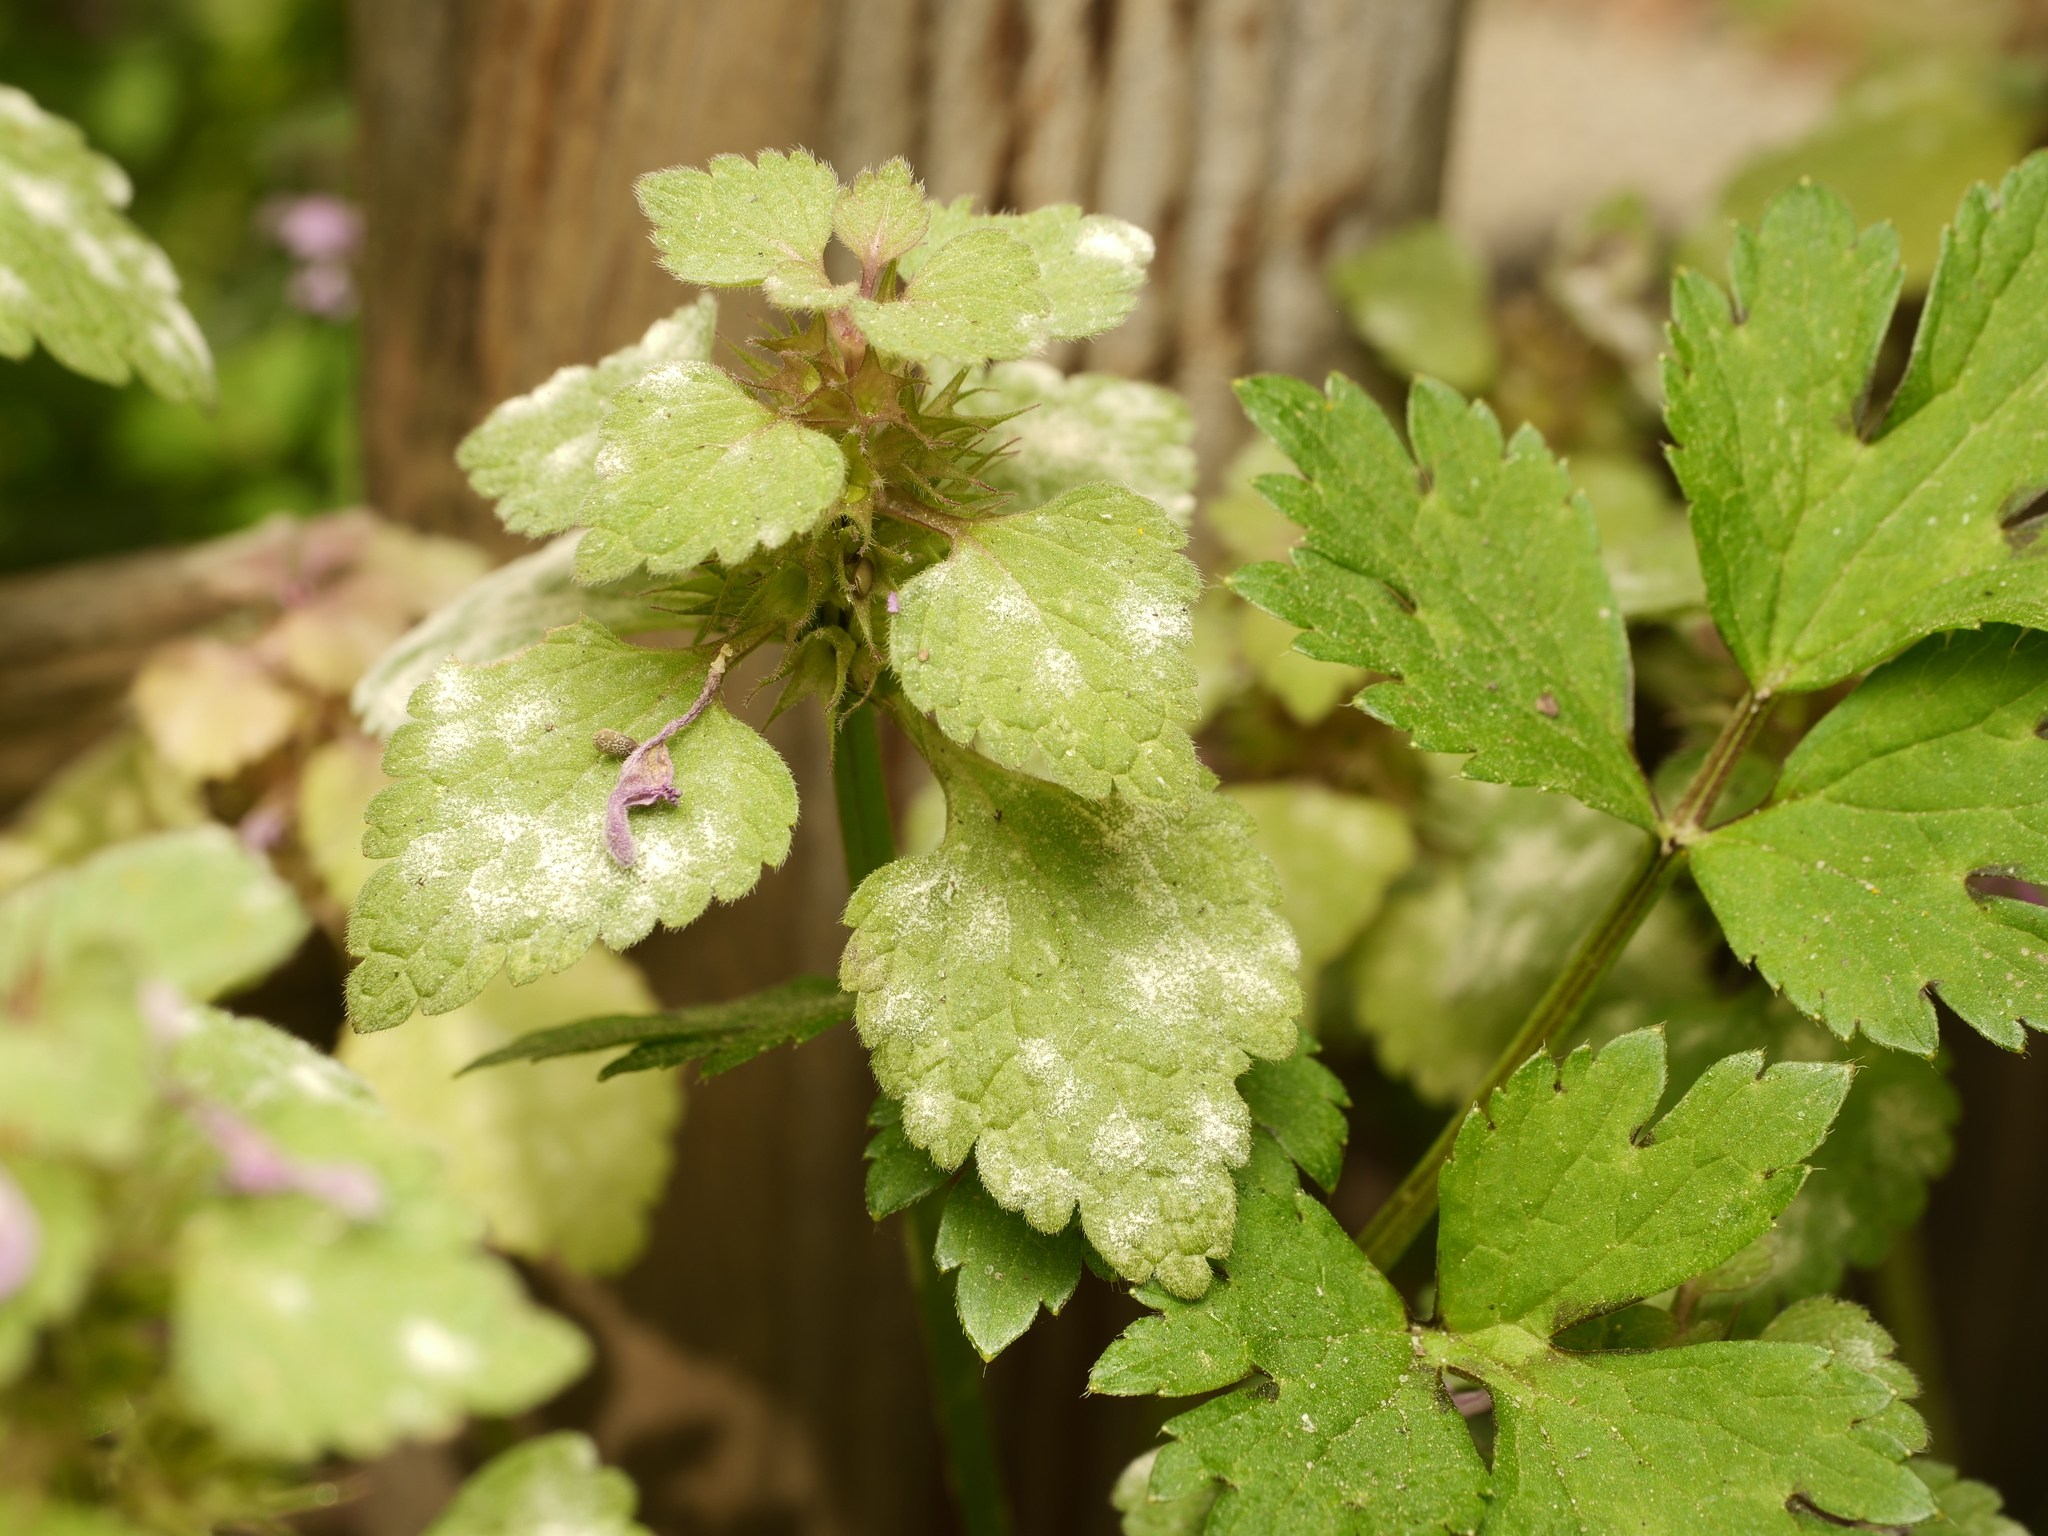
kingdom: Plantae
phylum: Tracheophyta
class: Magnoliopsida
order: Lamiales
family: Lamiaceae
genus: Lamium
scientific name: Lamium purpureum
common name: Red dead-nettle
